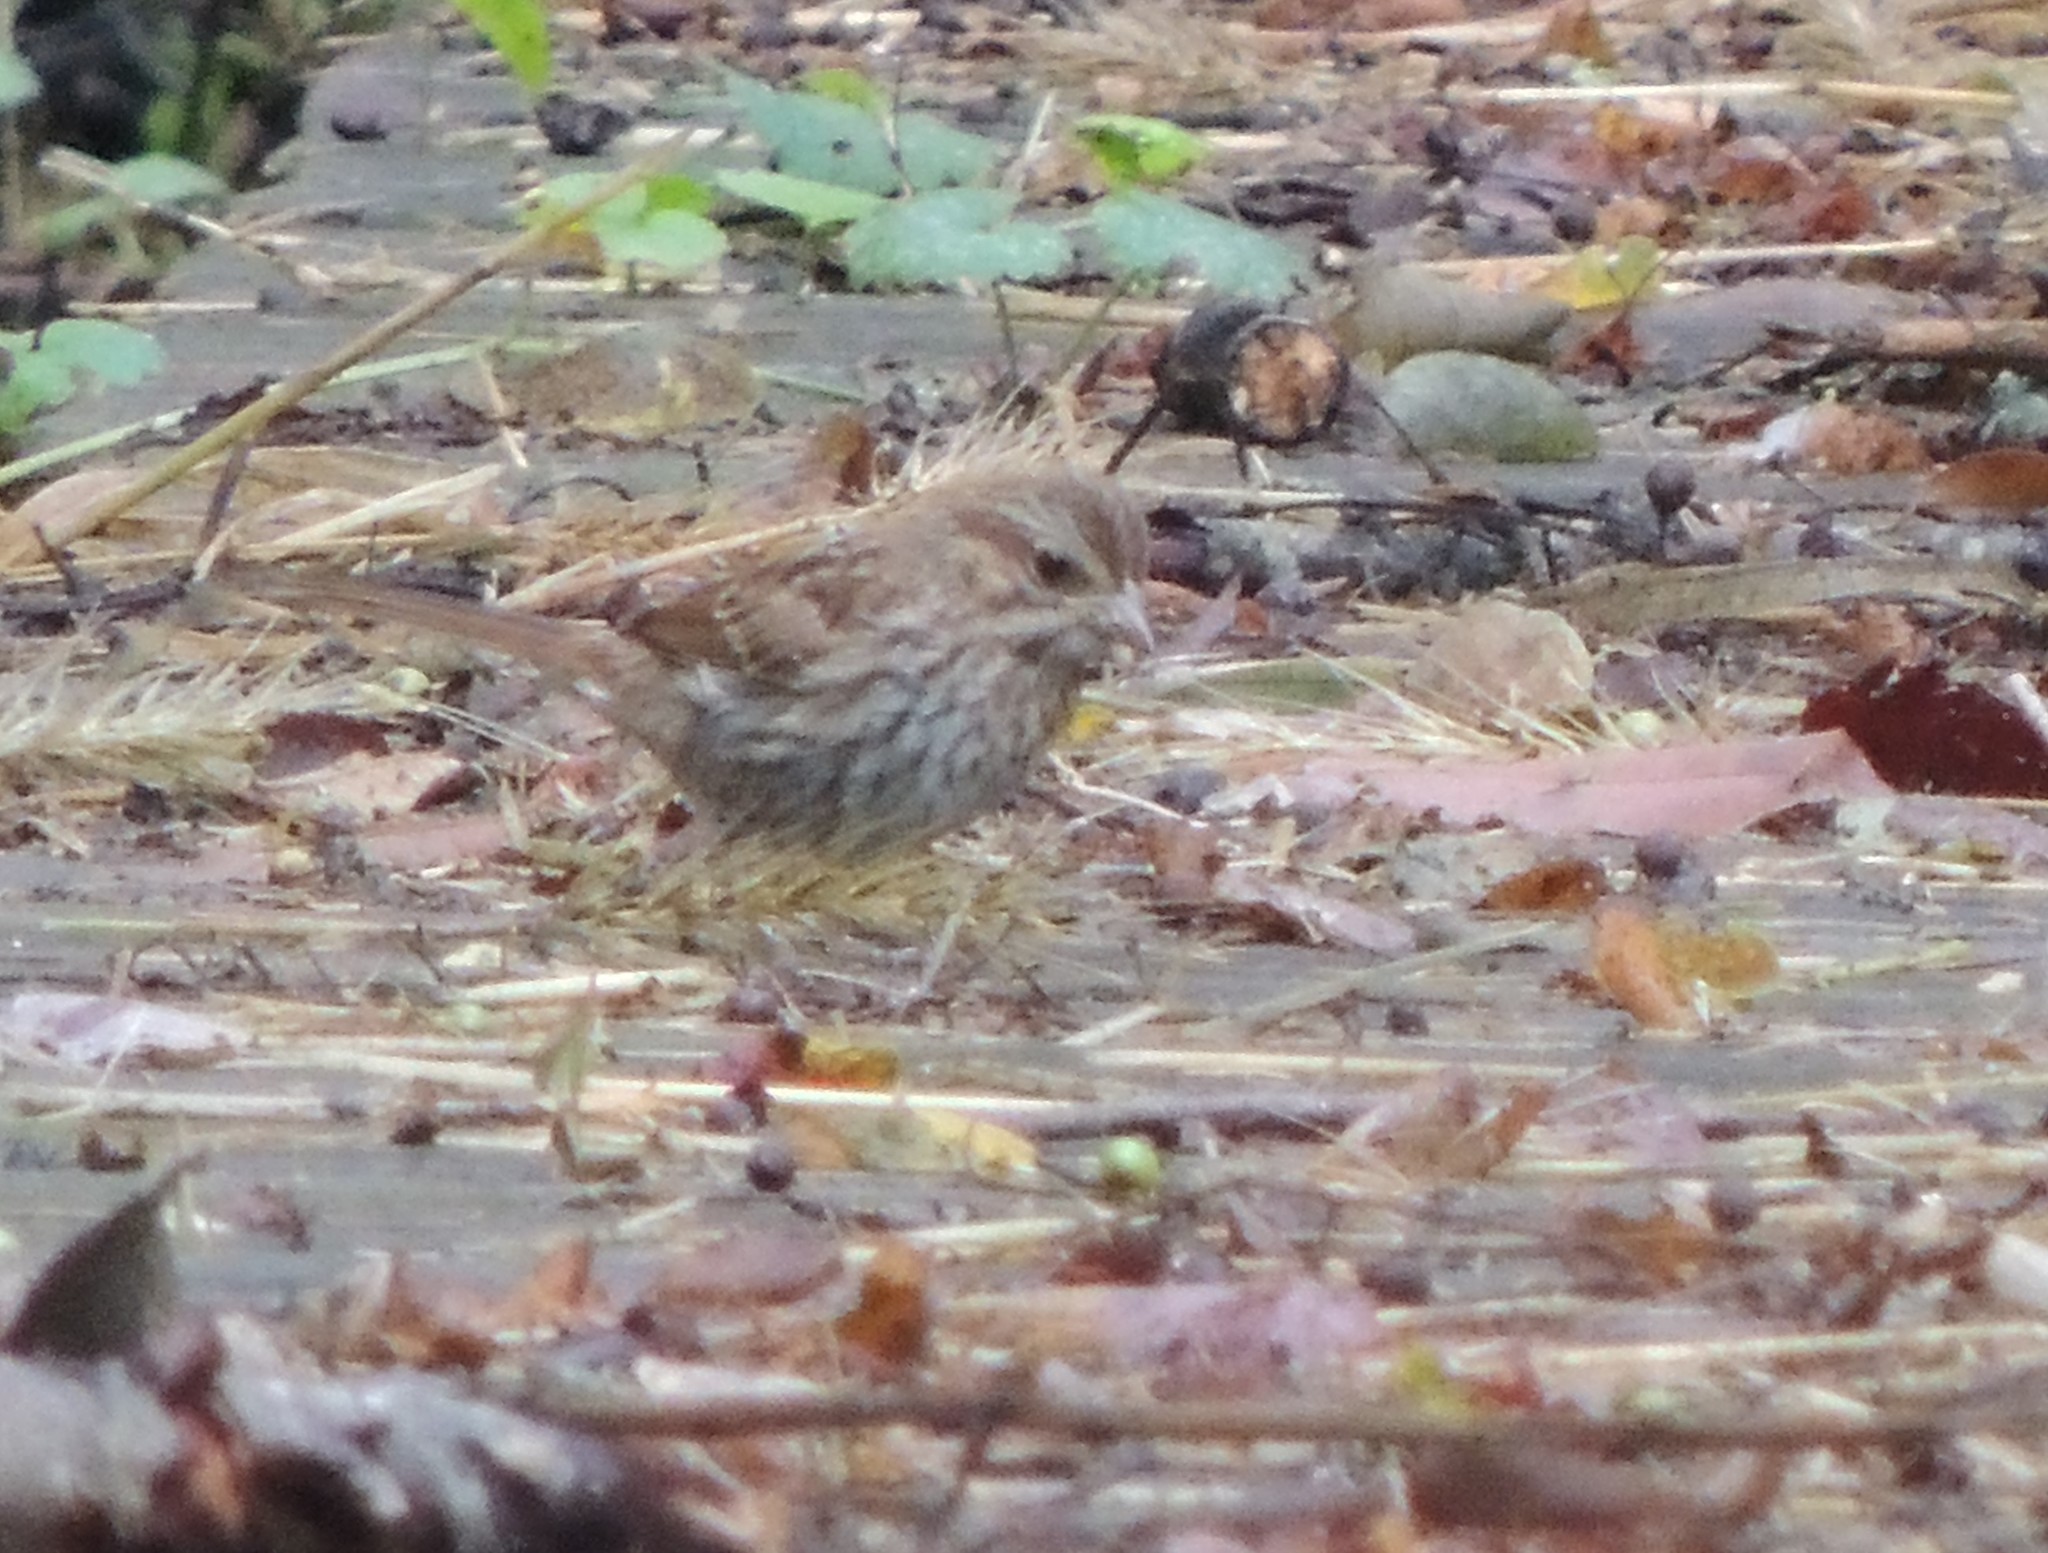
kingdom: Animalia
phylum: Chordata
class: Aves
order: Passeriformes
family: Passerellidae
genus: Melospiza
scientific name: Melospiza melodia
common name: Song sparrow
